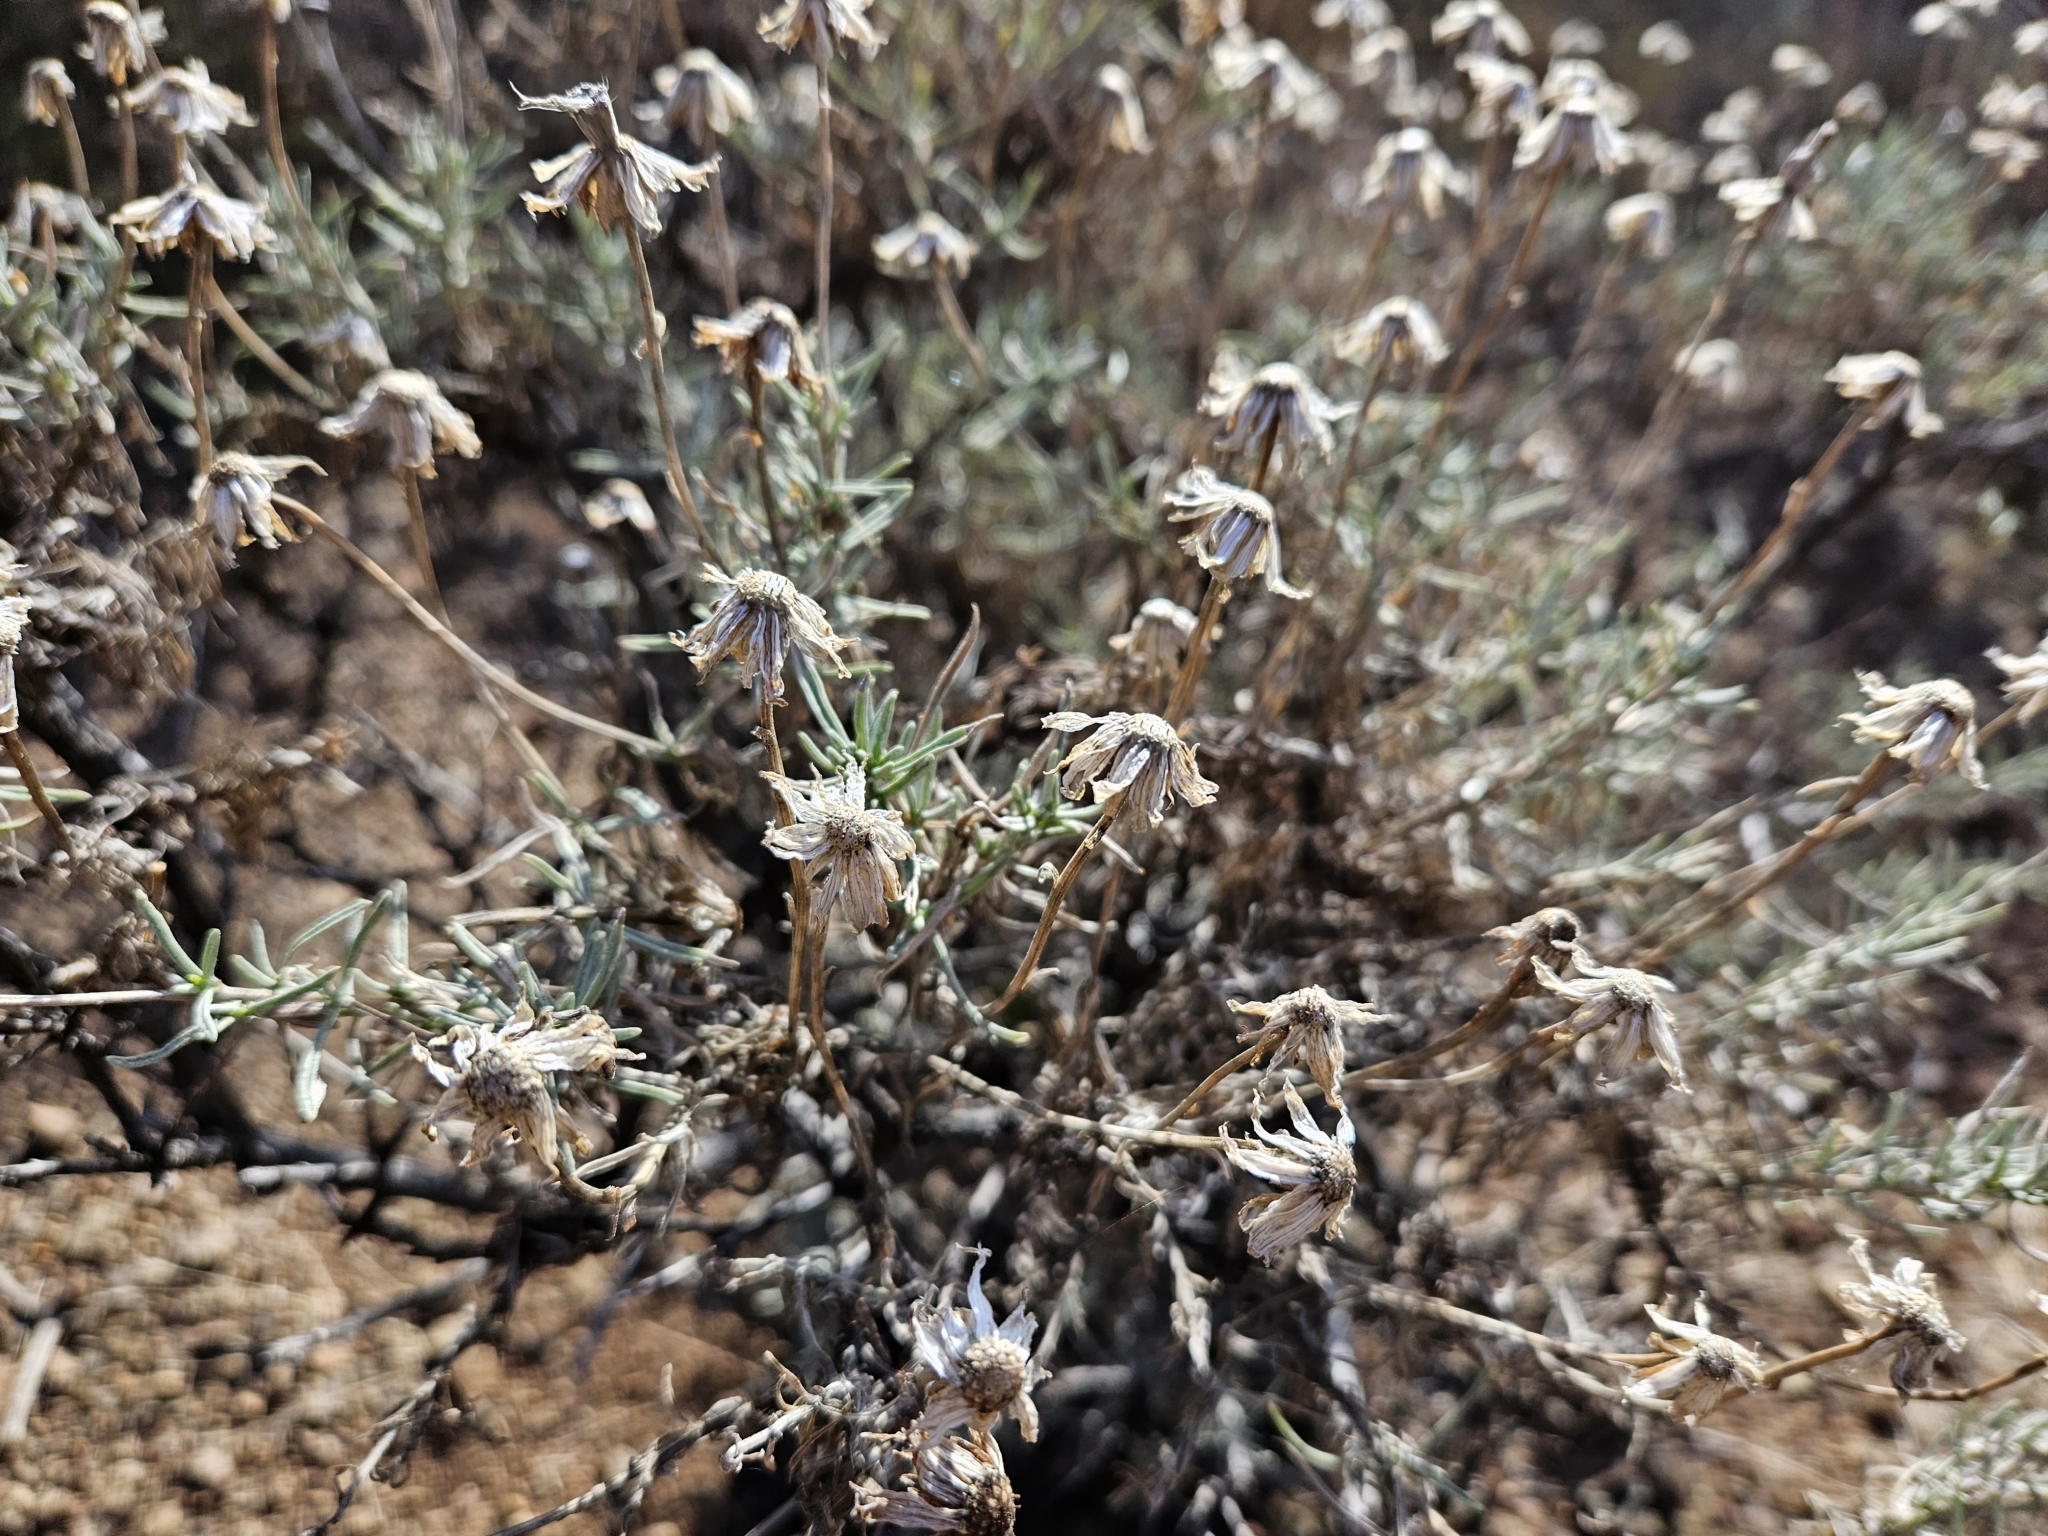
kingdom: Plantae
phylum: Tracheophyta
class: Magnoliopsida
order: Asterales
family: Asteraceae
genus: Ericameria
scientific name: Ericameria linearifolia
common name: Interior goldenbush
